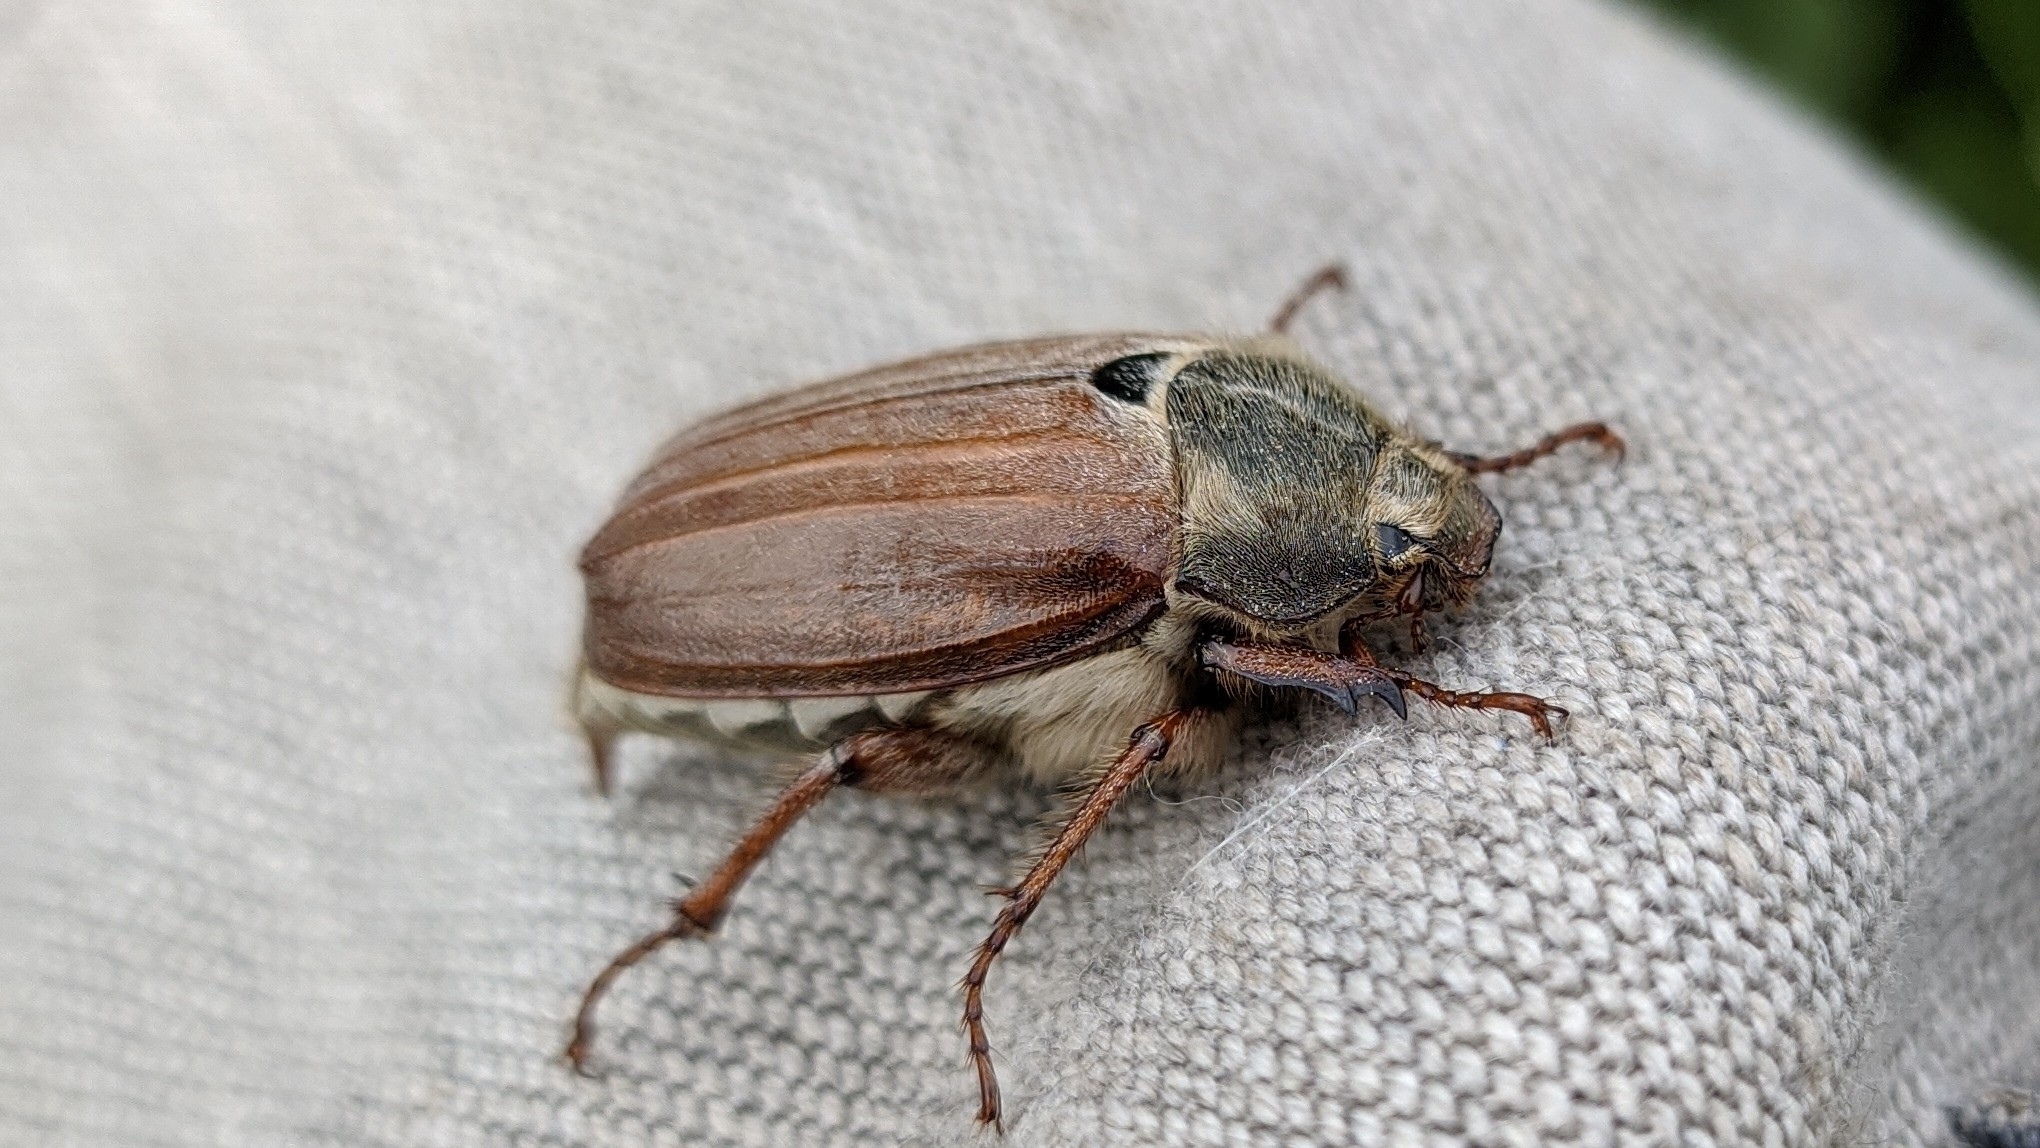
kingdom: Animalia
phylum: Arthropoda
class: Insecta
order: Coleoptera
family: Scarabaeidae
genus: Melolontha
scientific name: Melolontha melolontha
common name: Cockchafer maybeetle
